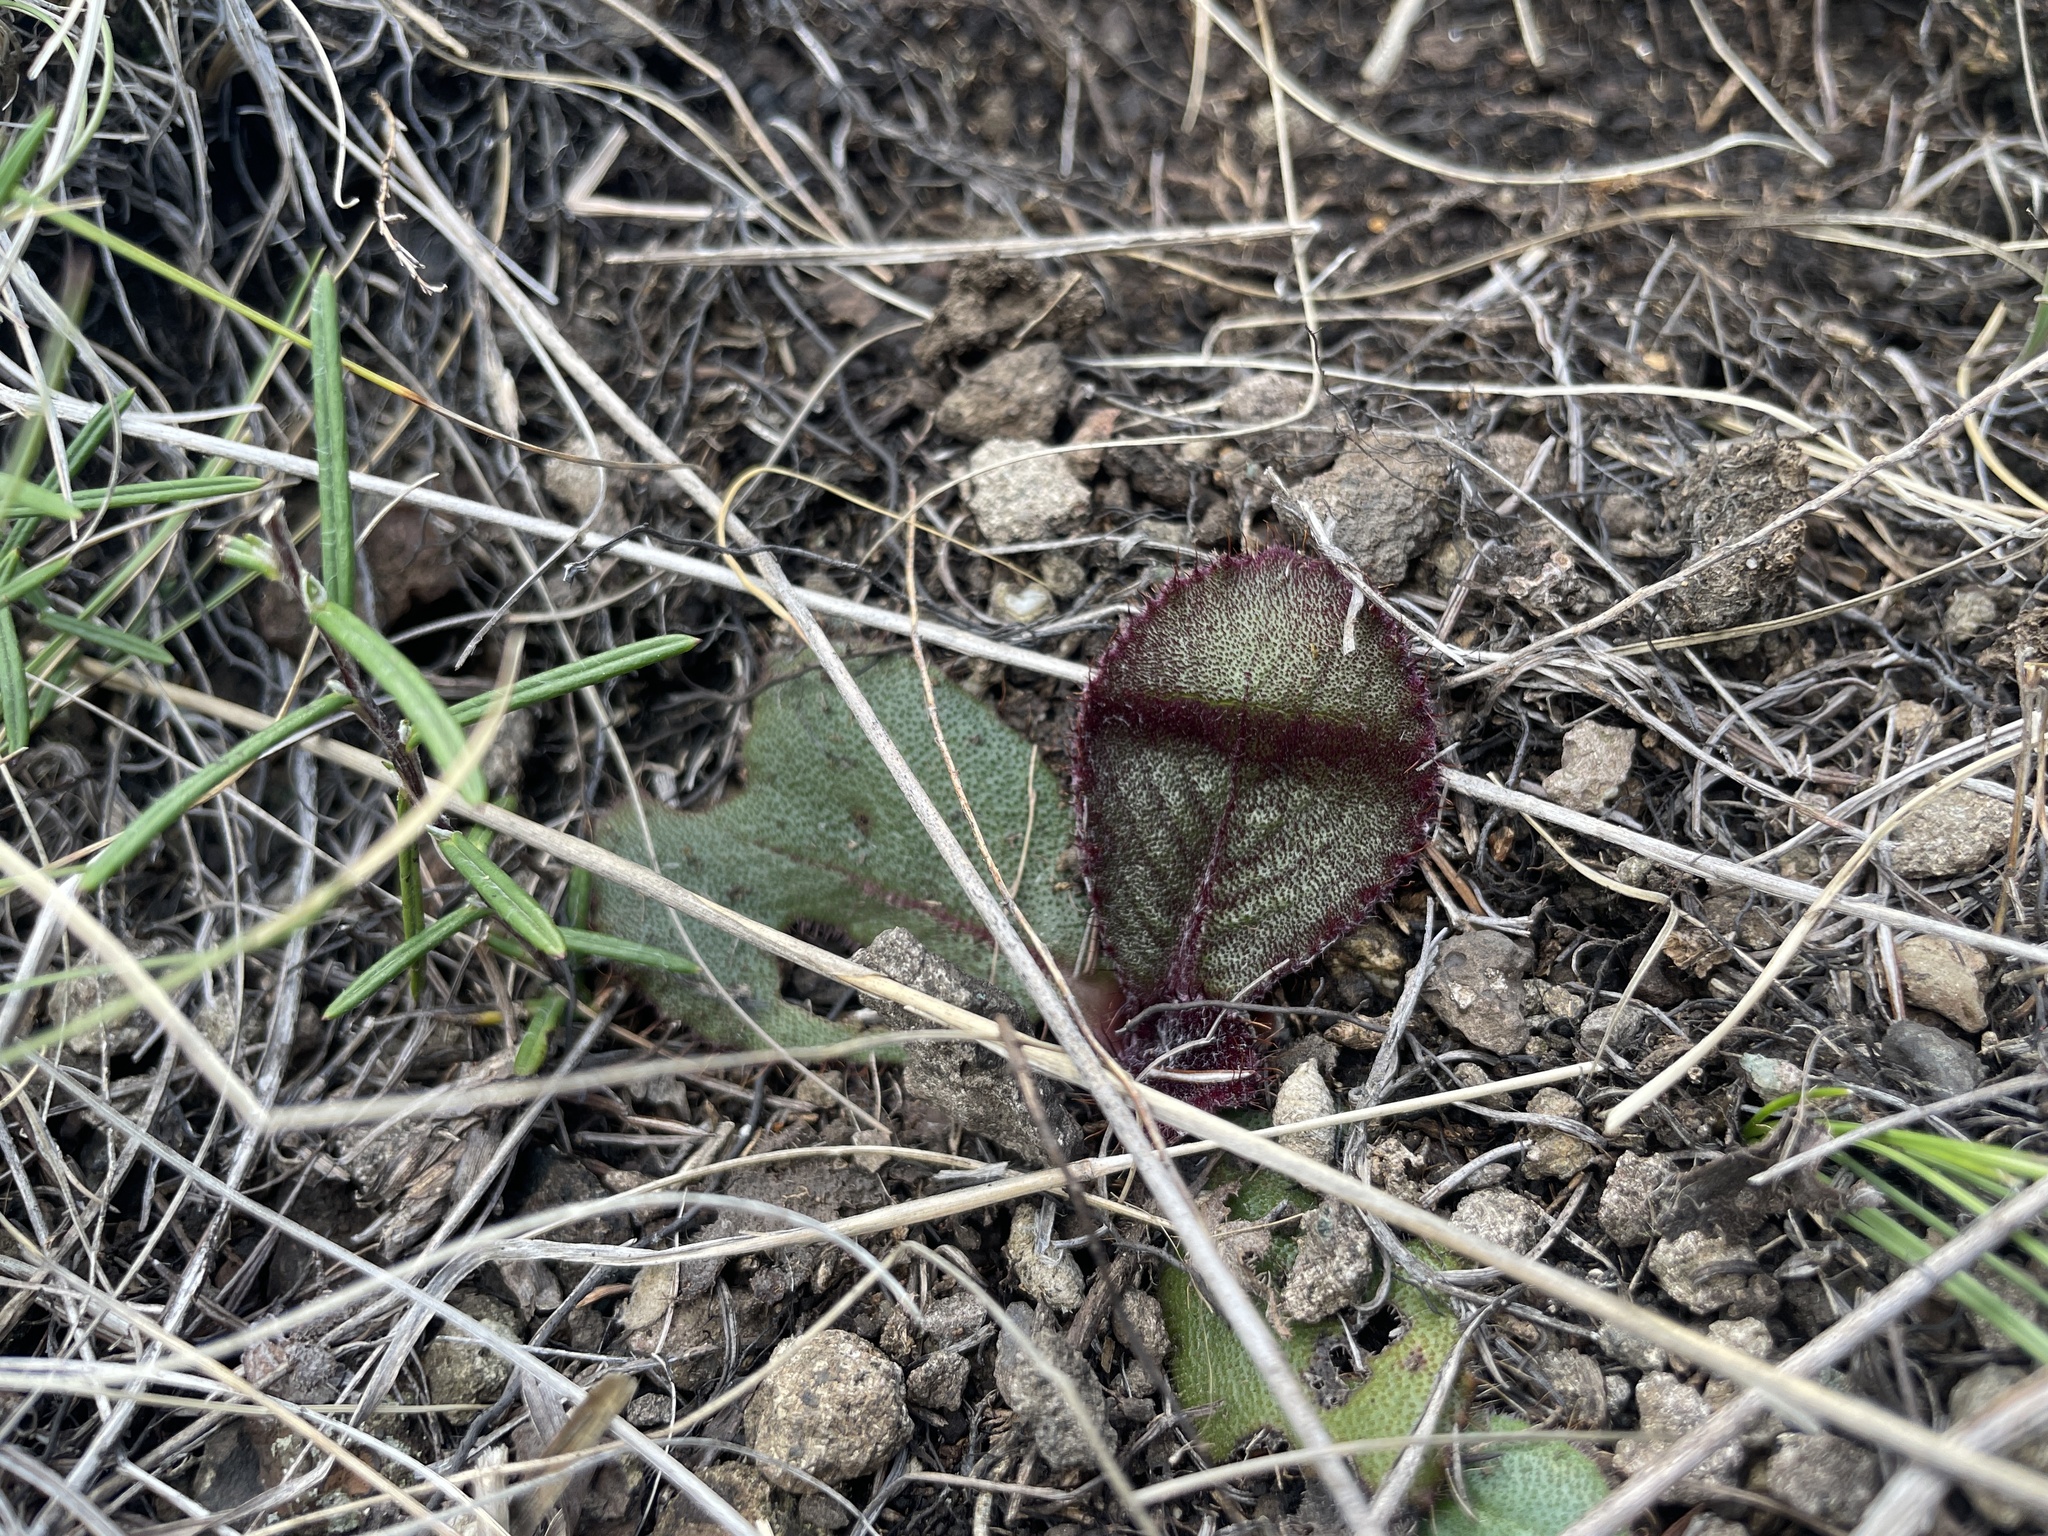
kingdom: Plantae
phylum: Tracheophyta
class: Magnoliopsida
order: Asterales
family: Asteraceae
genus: Berkheya
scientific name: Berkheya rhapontica
